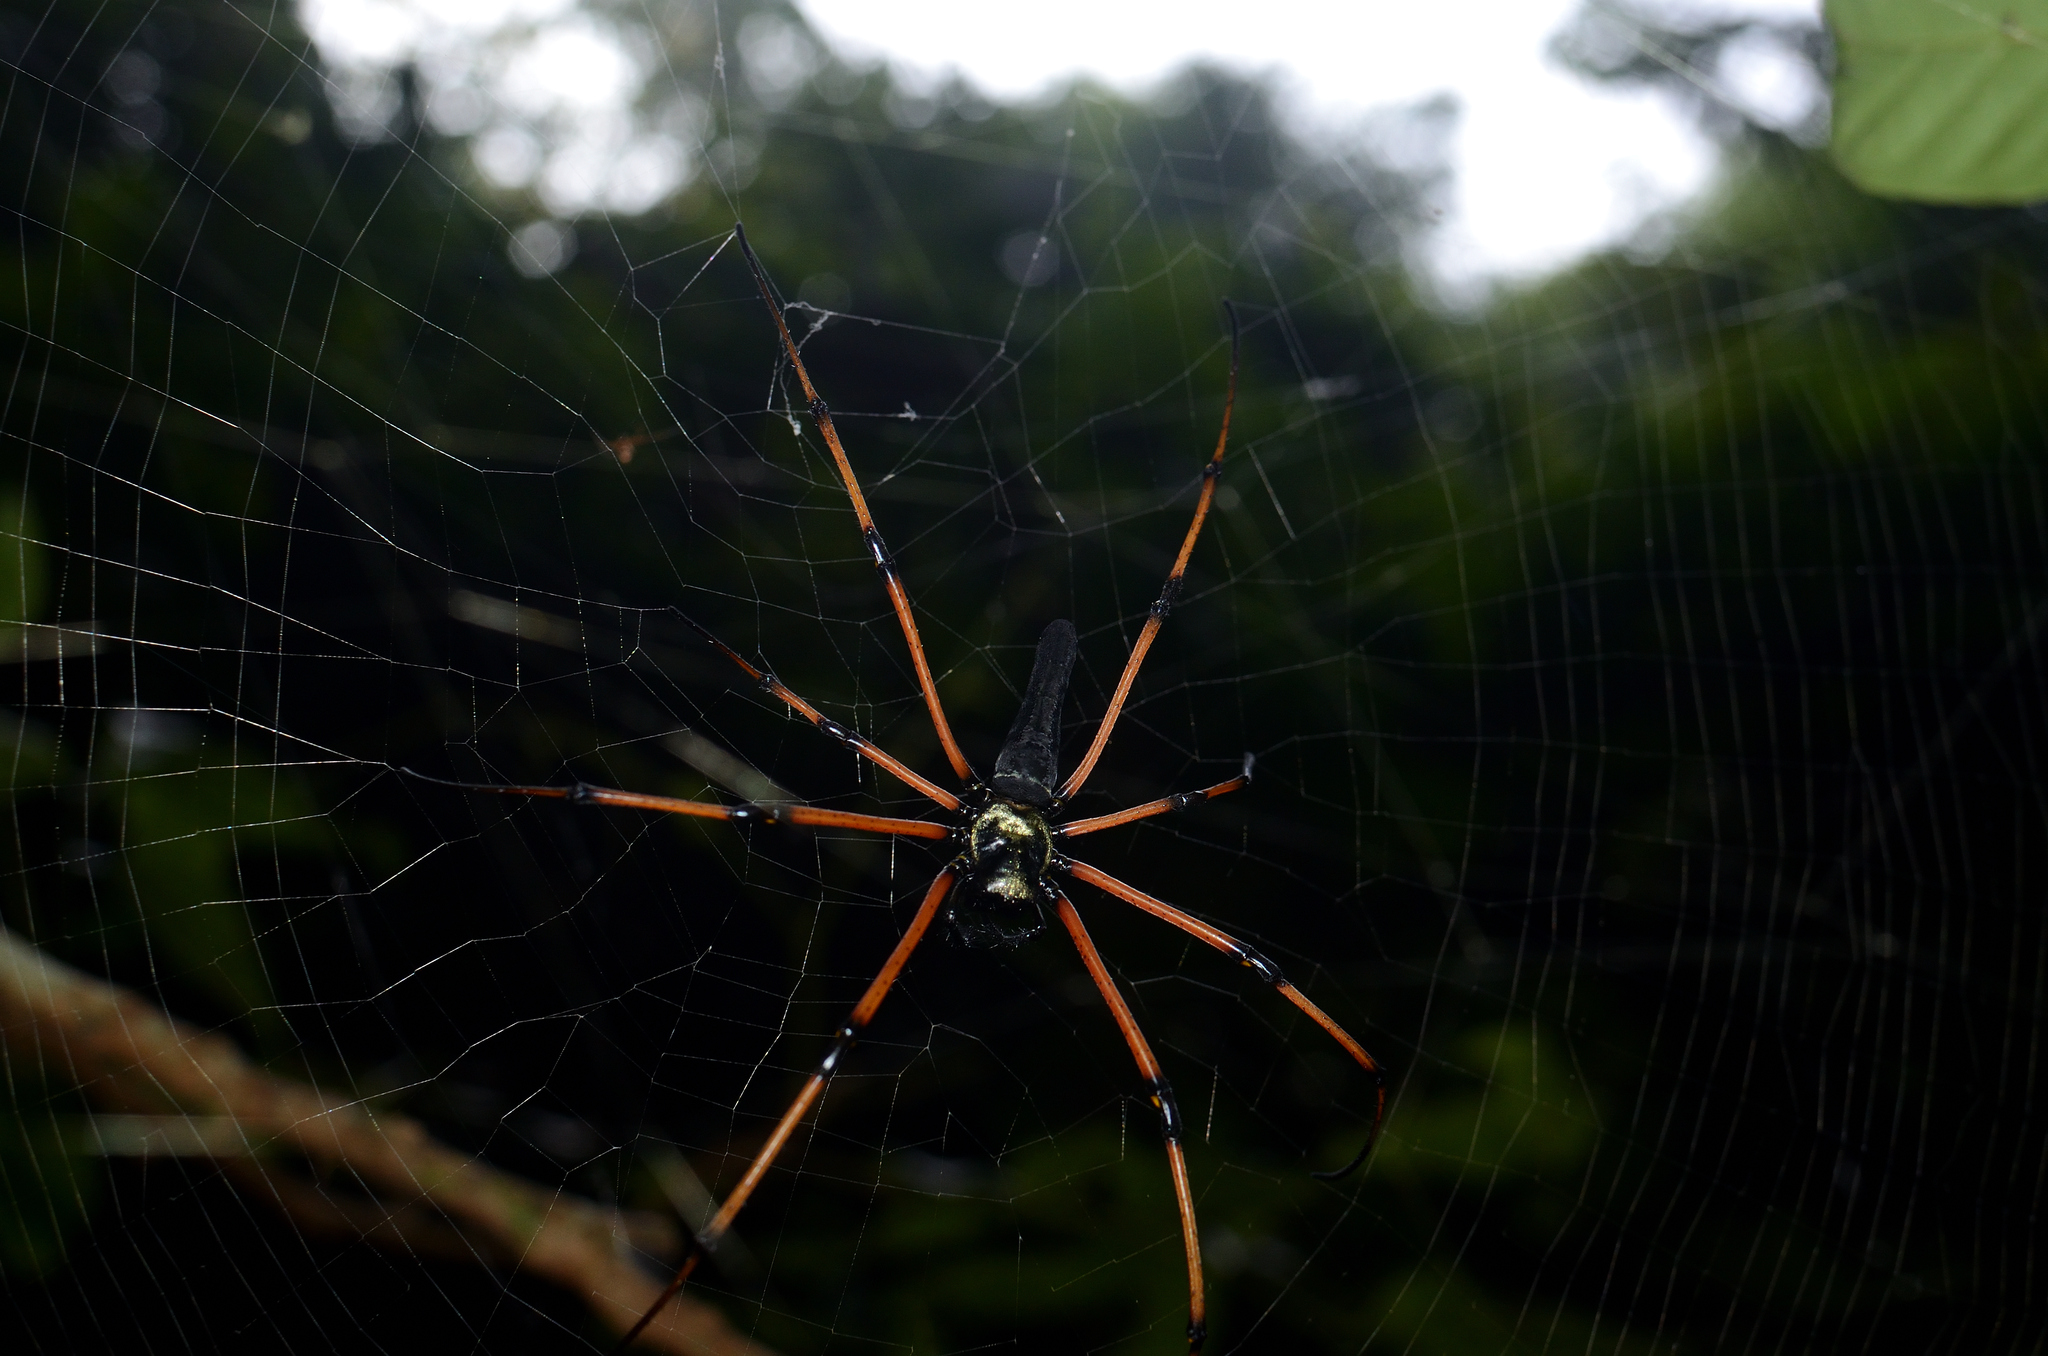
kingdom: Animalia
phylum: Arthropoda
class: Arachnida
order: Araneae
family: Araneidae
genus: Nephila
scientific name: Nephila kuhli
